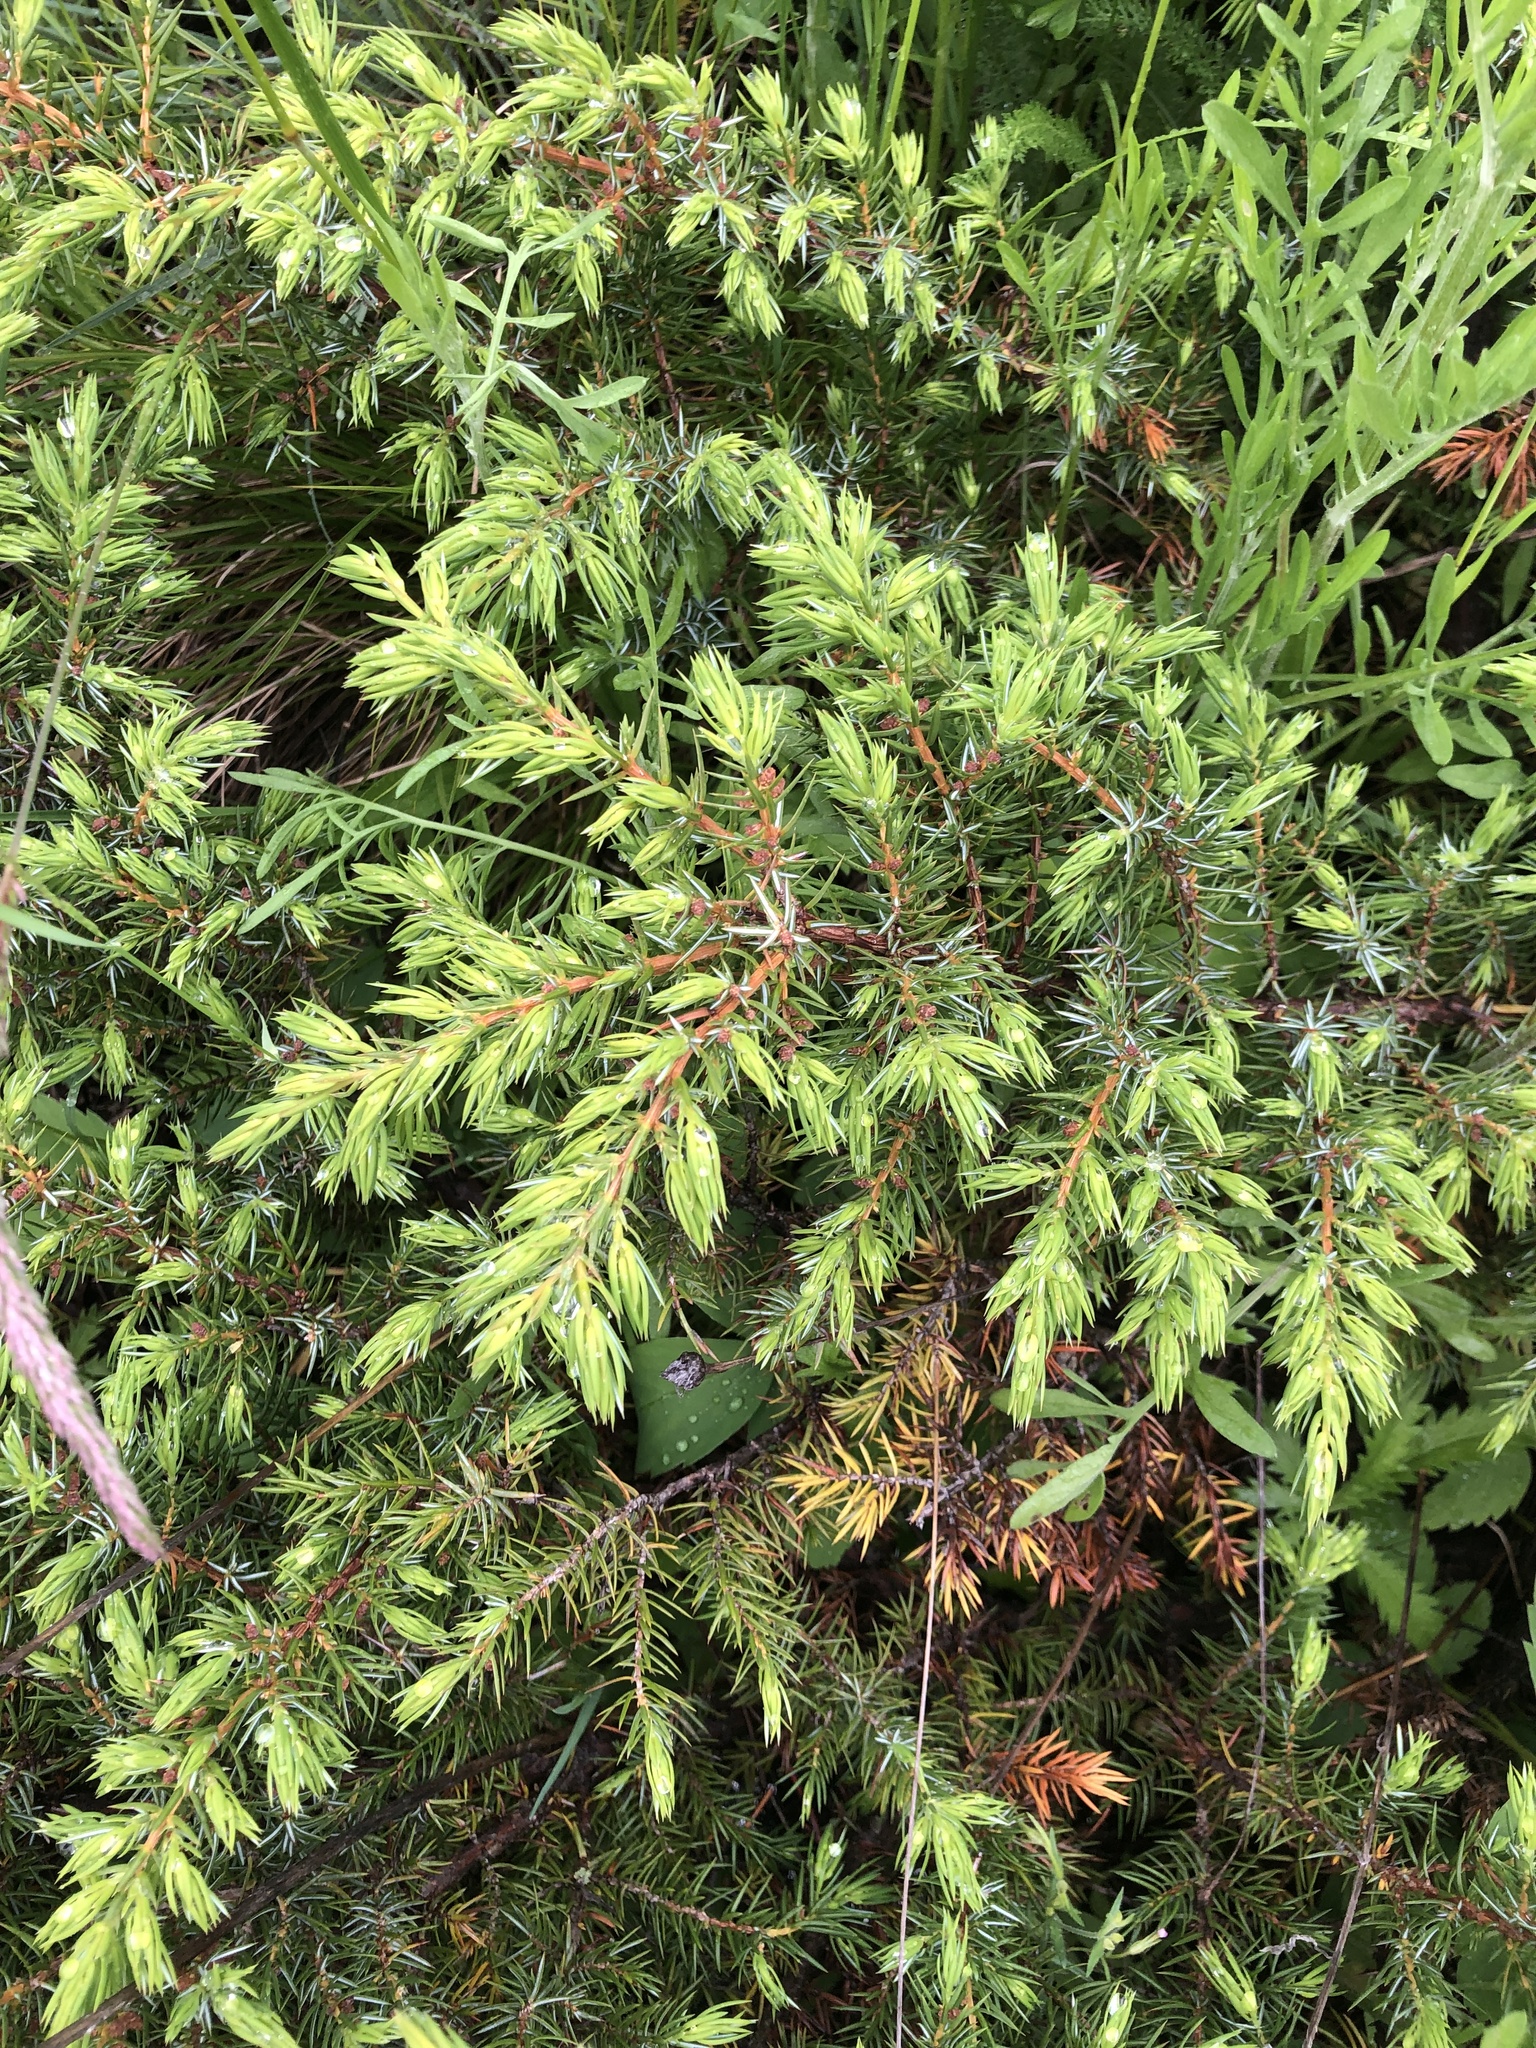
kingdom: Plantae
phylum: Tracheophyta
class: Pinopsida
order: Pinales
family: Cupressaceae
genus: Juniperus
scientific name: Juniperus communis
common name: Common juniper
